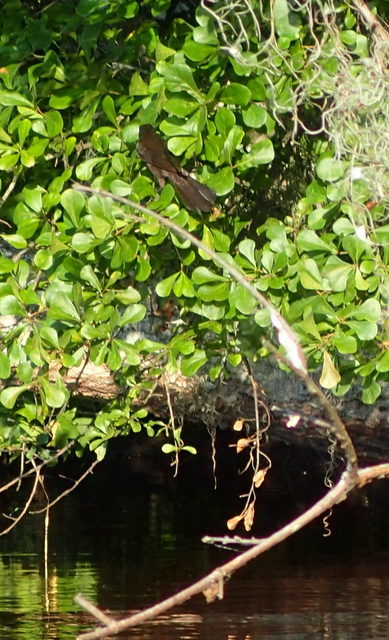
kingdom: Animalia
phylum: Chordata
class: Aves
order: Passeriformes
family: Icteridae
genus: Quiscalus
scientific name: Quiscalus major
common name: Boat-tailed grackle
